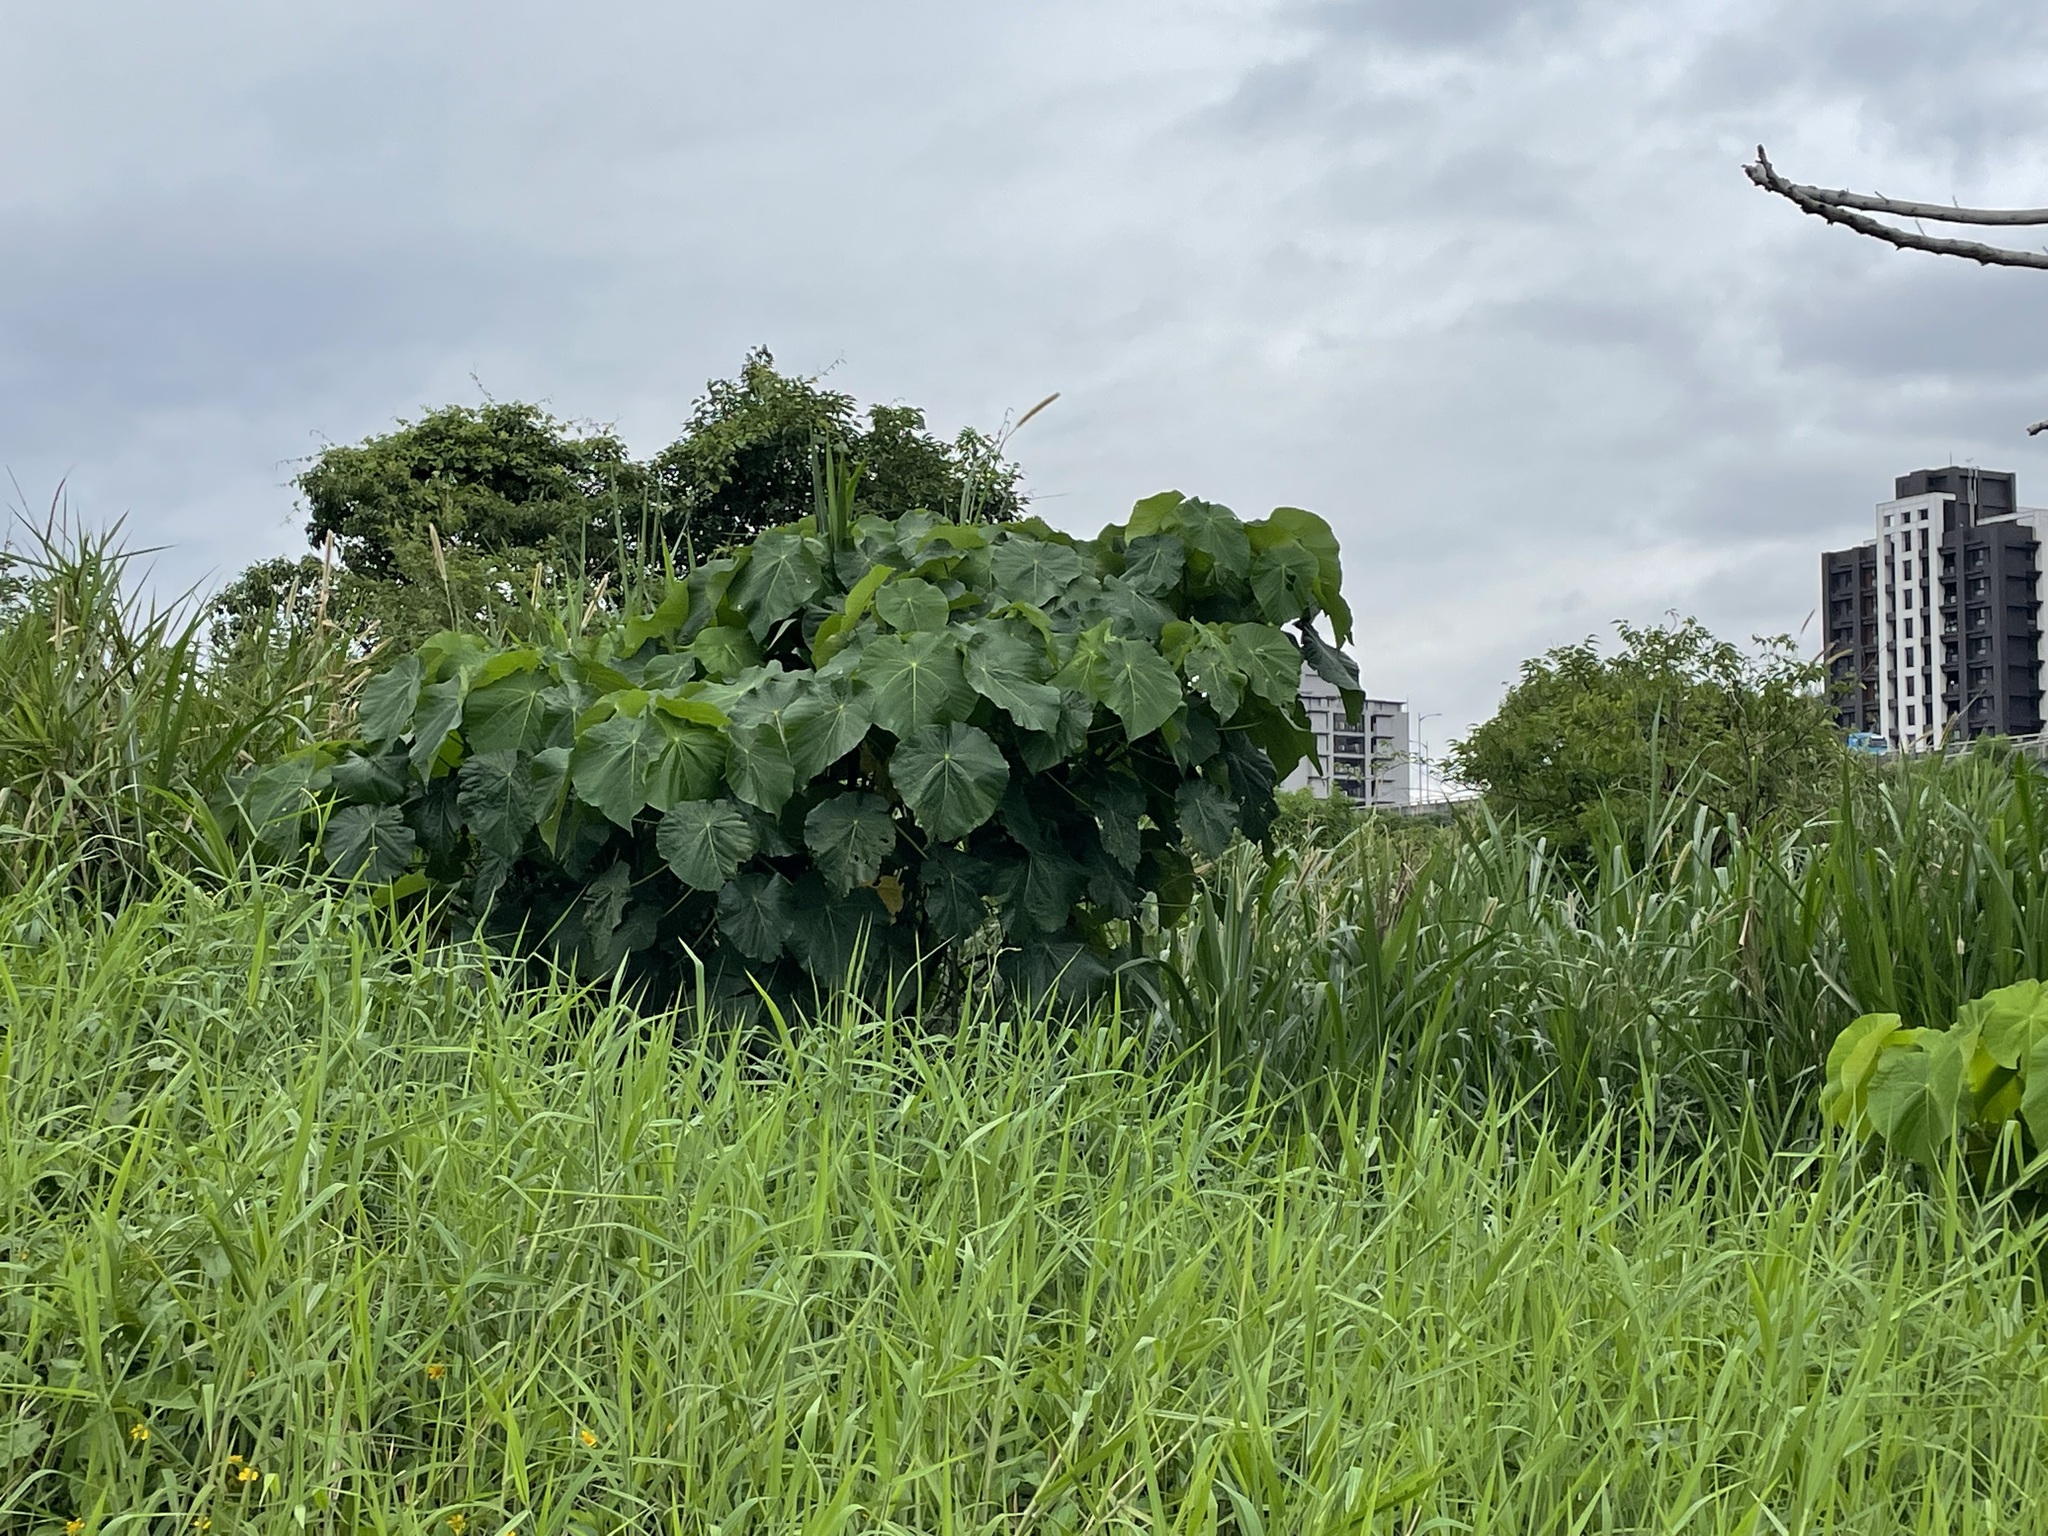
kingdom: Plantae
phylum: Tracheophyta
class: Magnoliopsida
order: Malpighiales
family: Euphorbiaceae
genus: Macaranga
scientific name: Macaranga tanarius
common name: Parasol leaf tree
